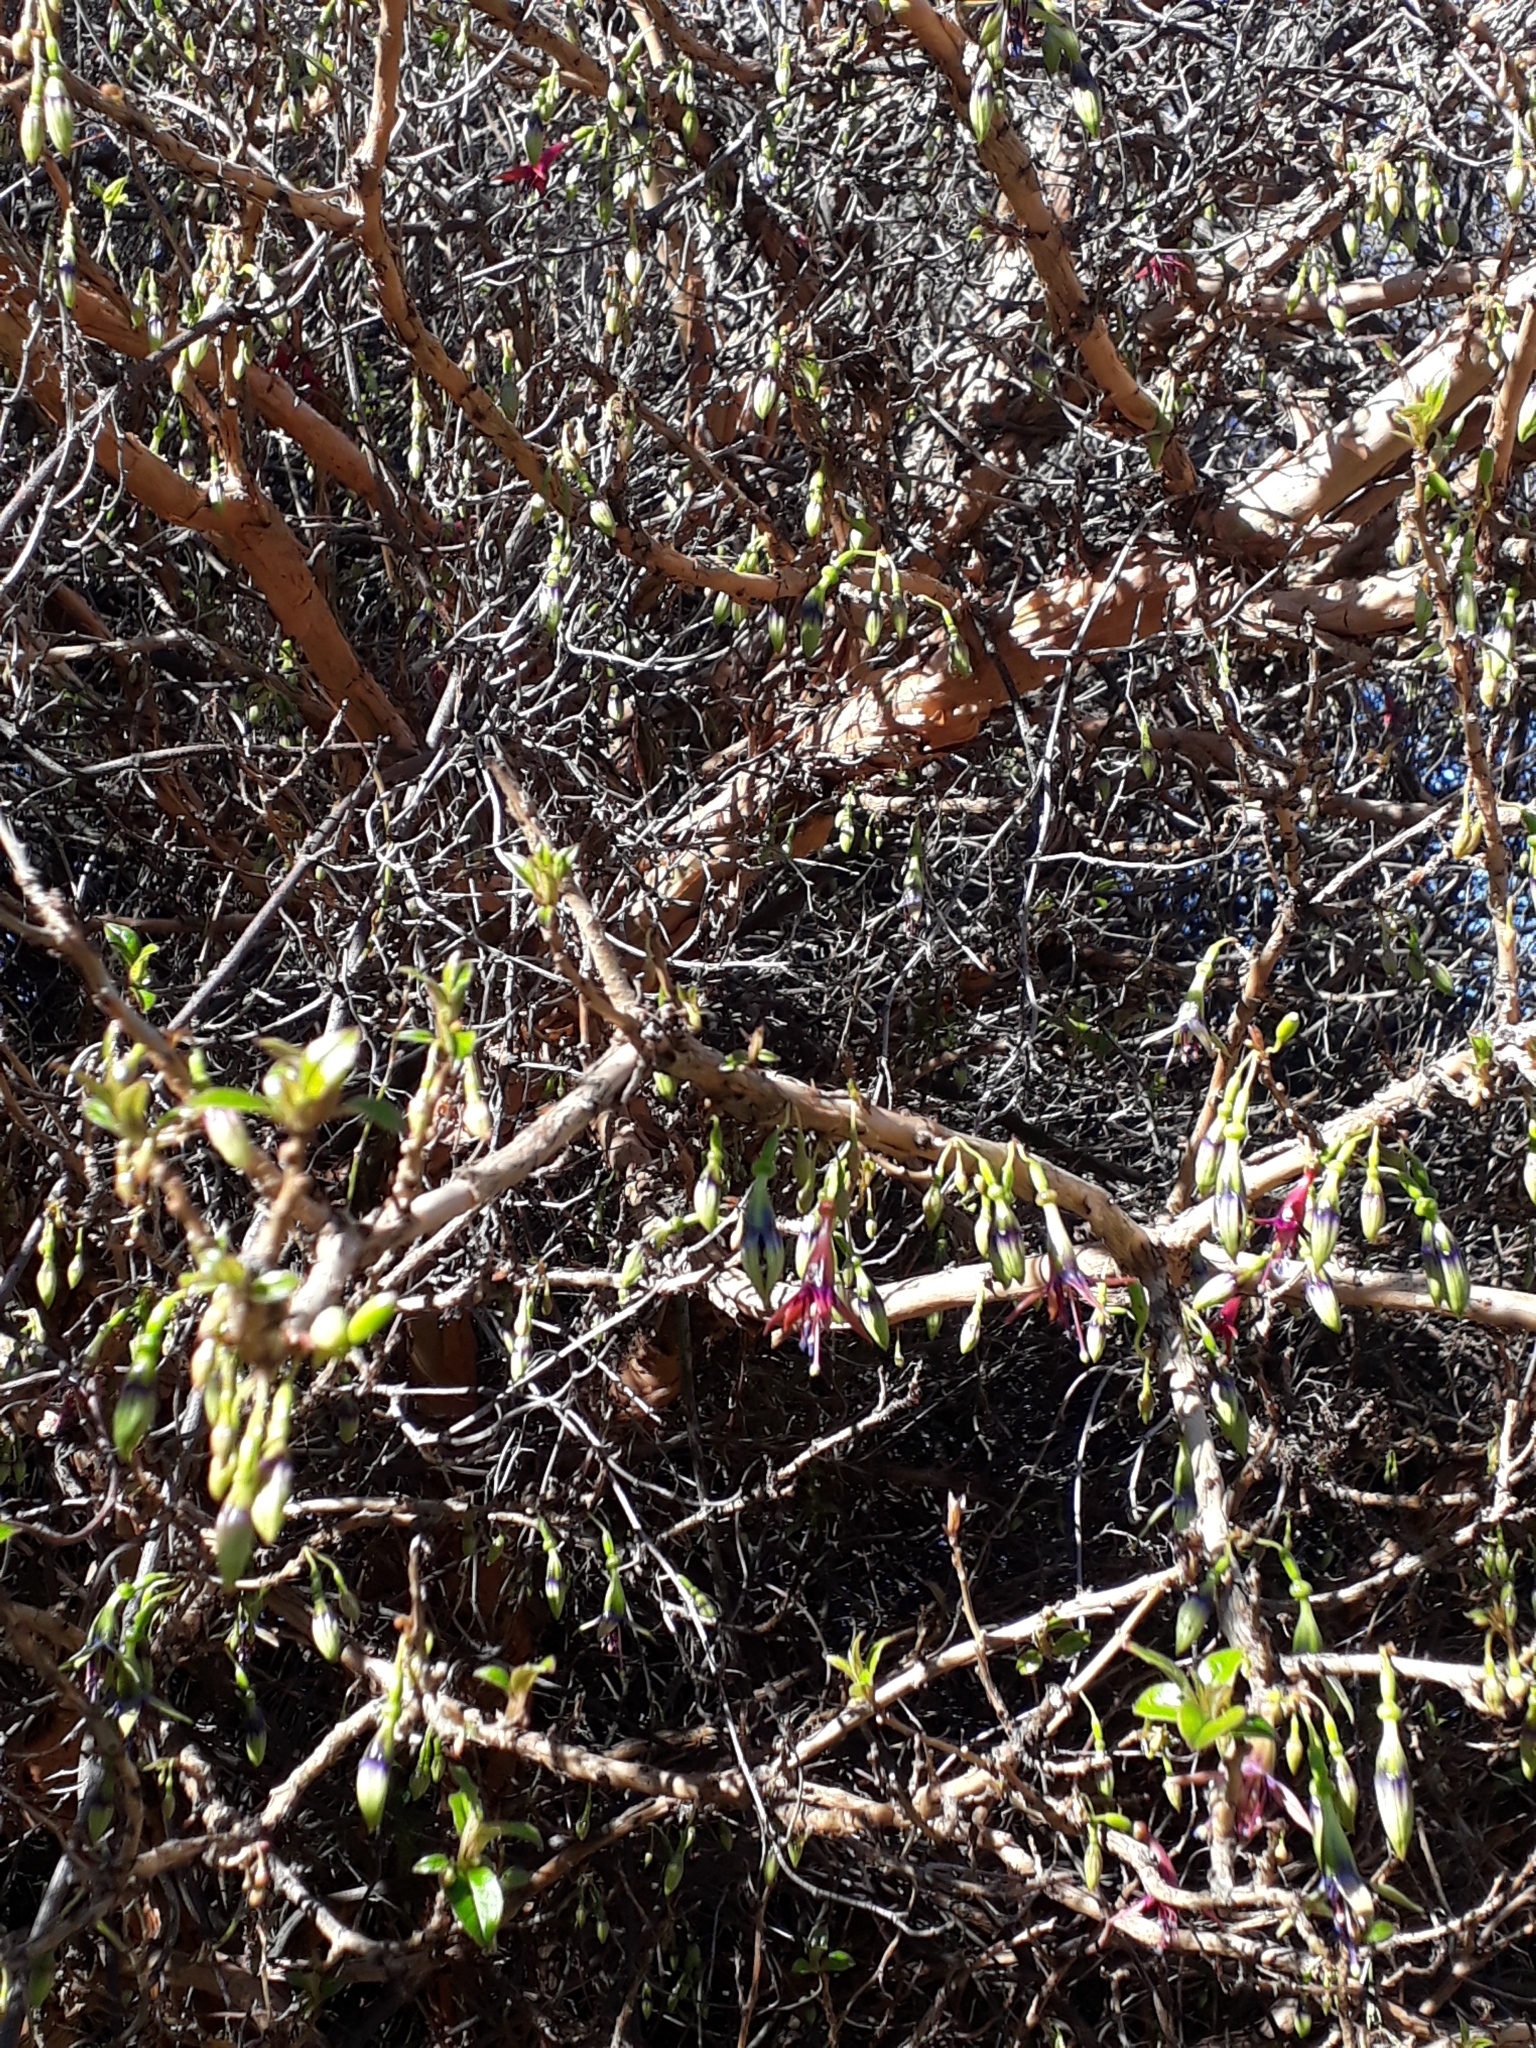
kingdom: Plantae
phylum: Tracheophyta
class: Magnoliopsida
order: Myrtales
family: Onagraceae
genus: Fuchsia
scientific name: Fuchsia excorticata
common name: Tree fuchsia
